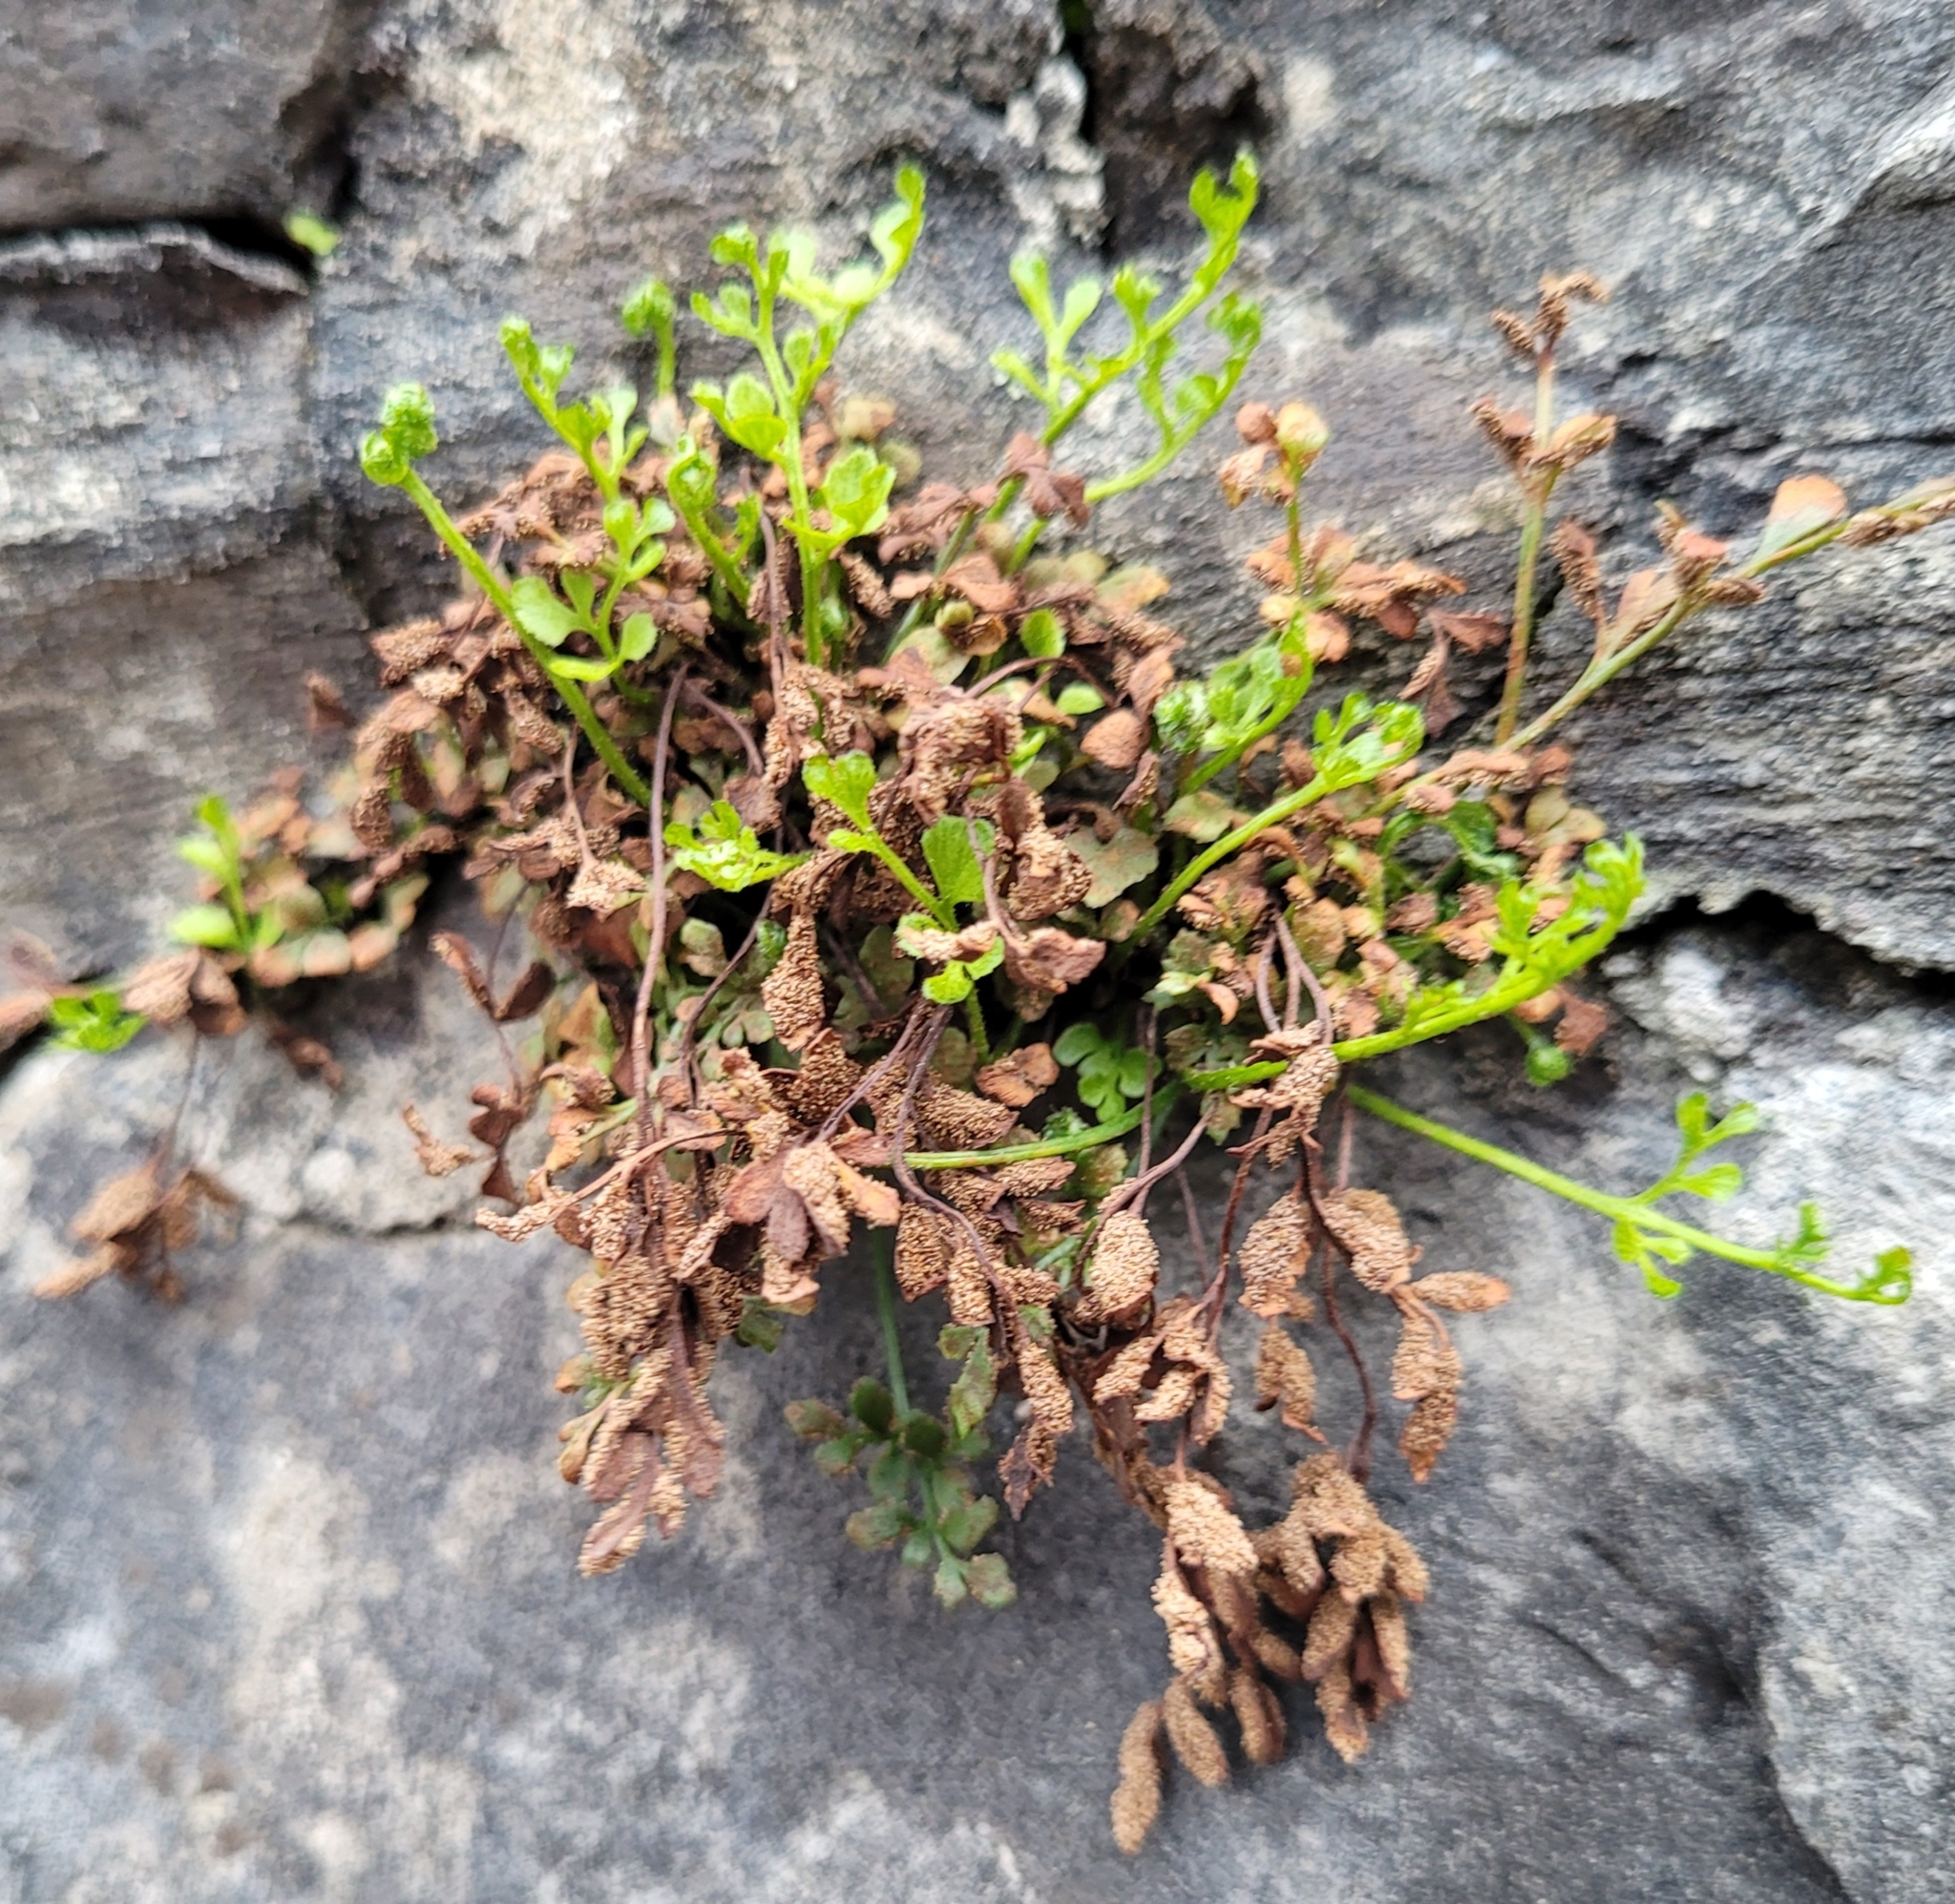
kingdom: Plantae
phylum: Tracheophyta
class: Polypodiopsida
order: Polypodiales
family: Aspleniaceae
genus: Asplenium
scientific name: Asplenium ruta-muraria
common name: Wall-rue
